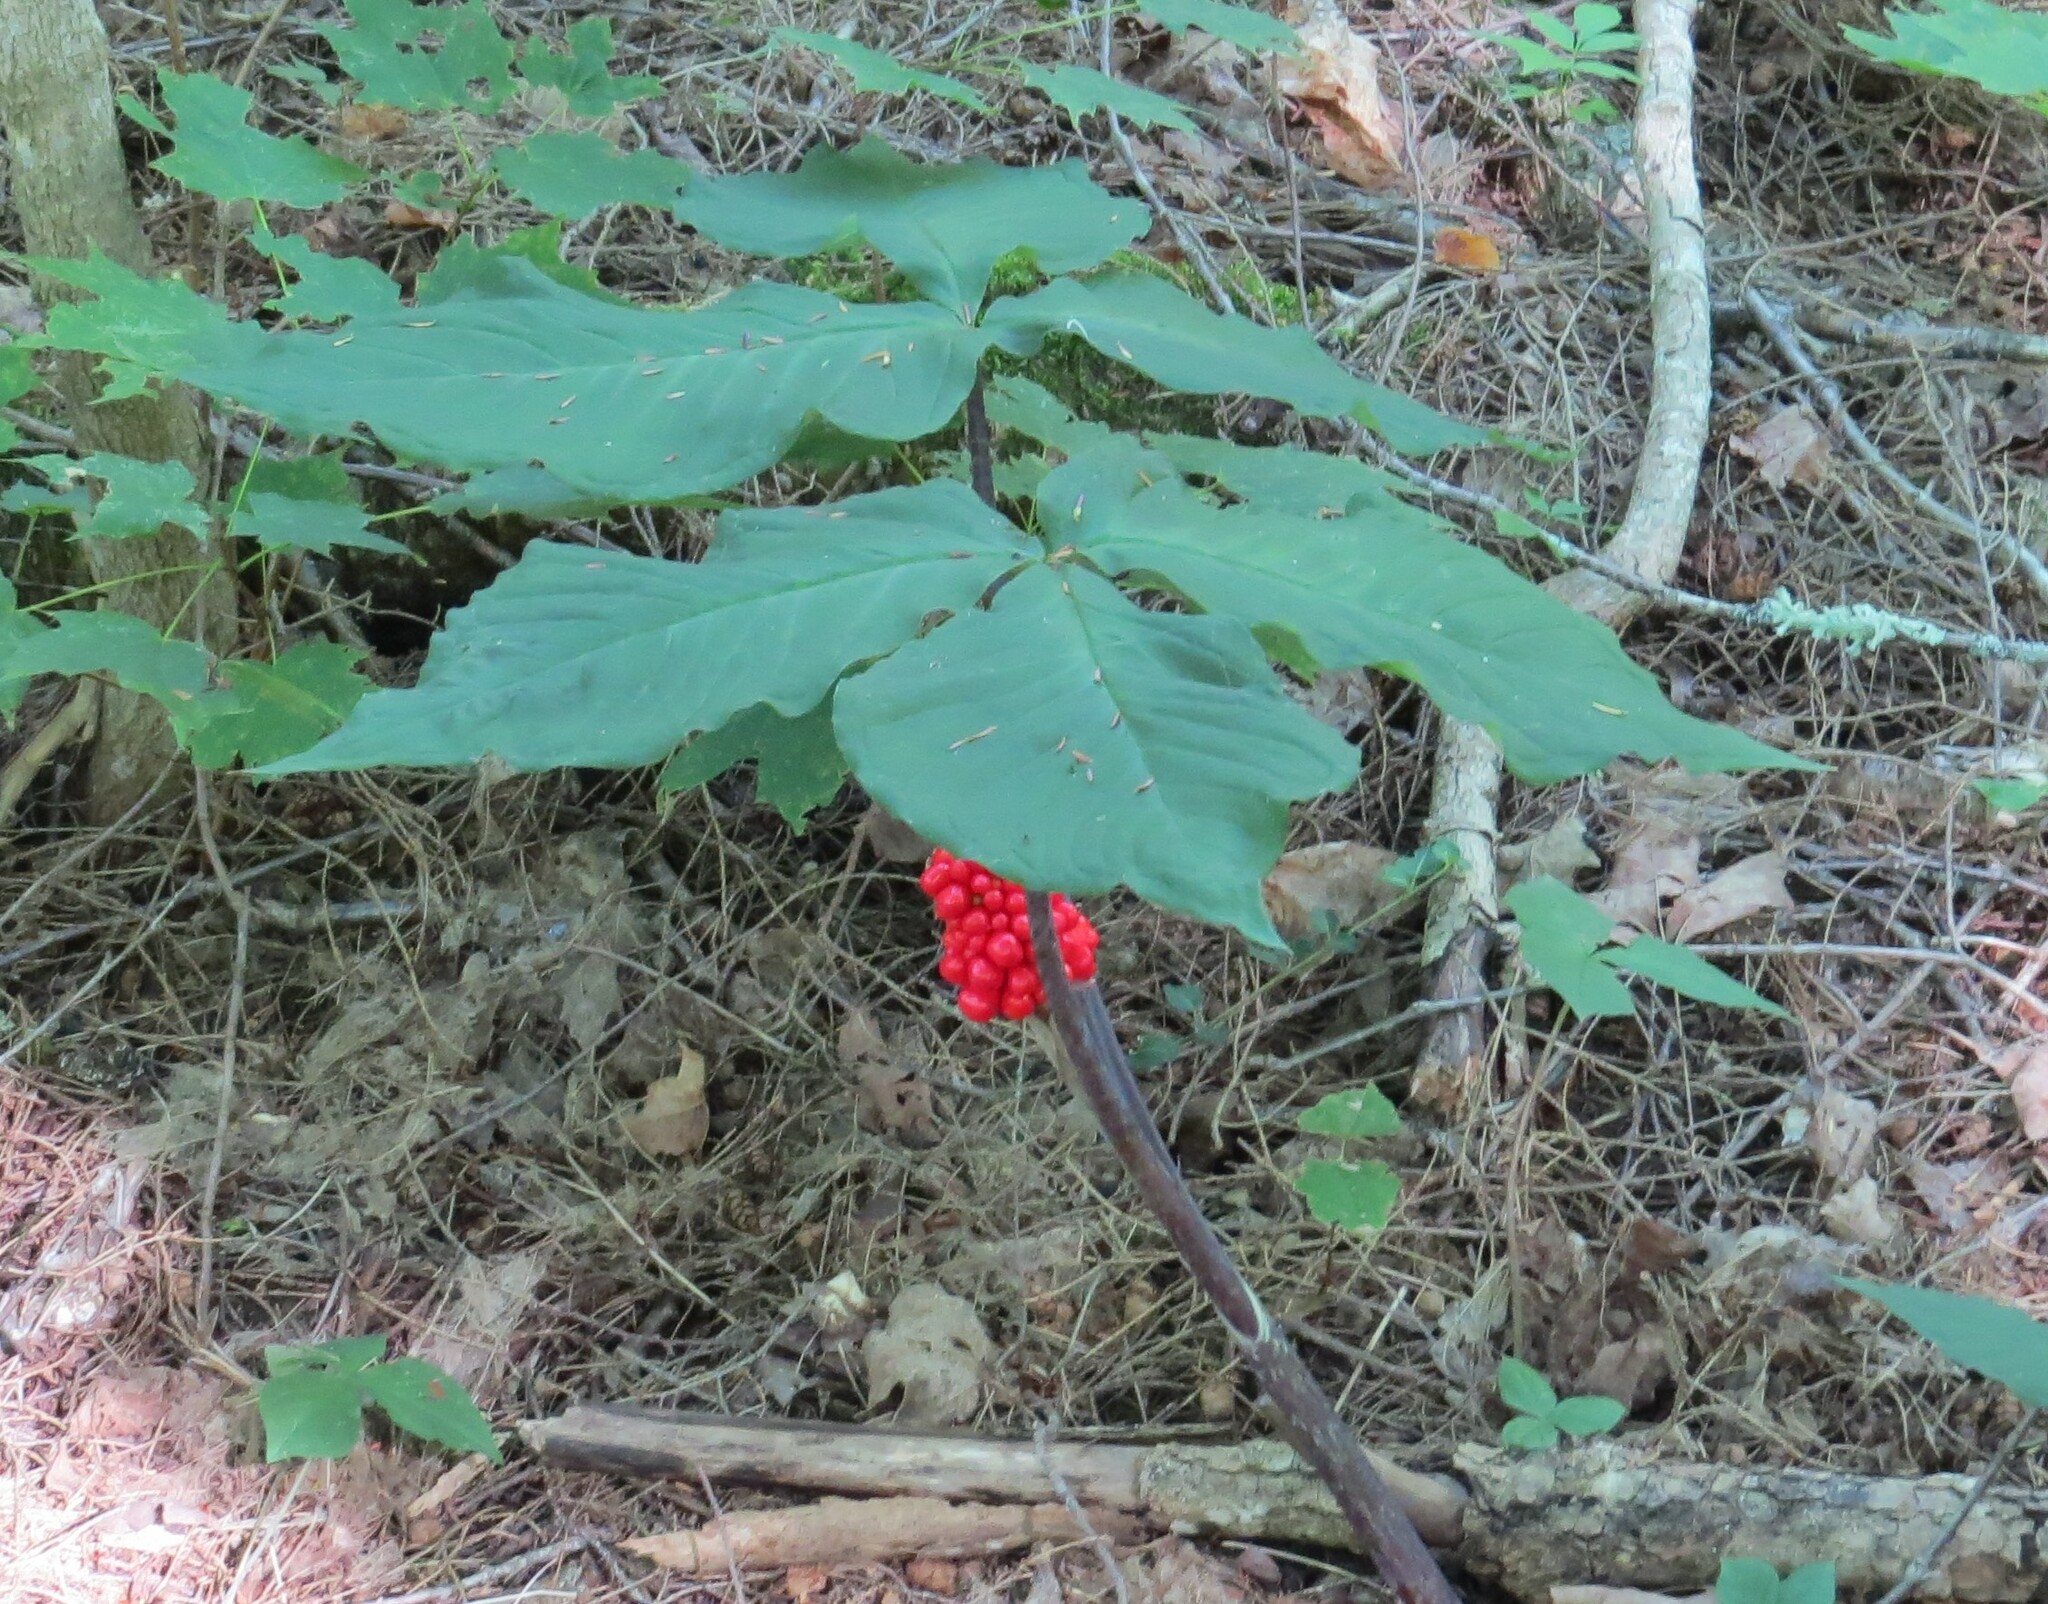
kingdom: Plantae
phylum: Tracheophyta
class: Liliopsida
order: Alismatales
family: Araceae
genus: Arisaema
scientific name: Arisaema triphyllum
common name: Jack-in-the-pulpit
